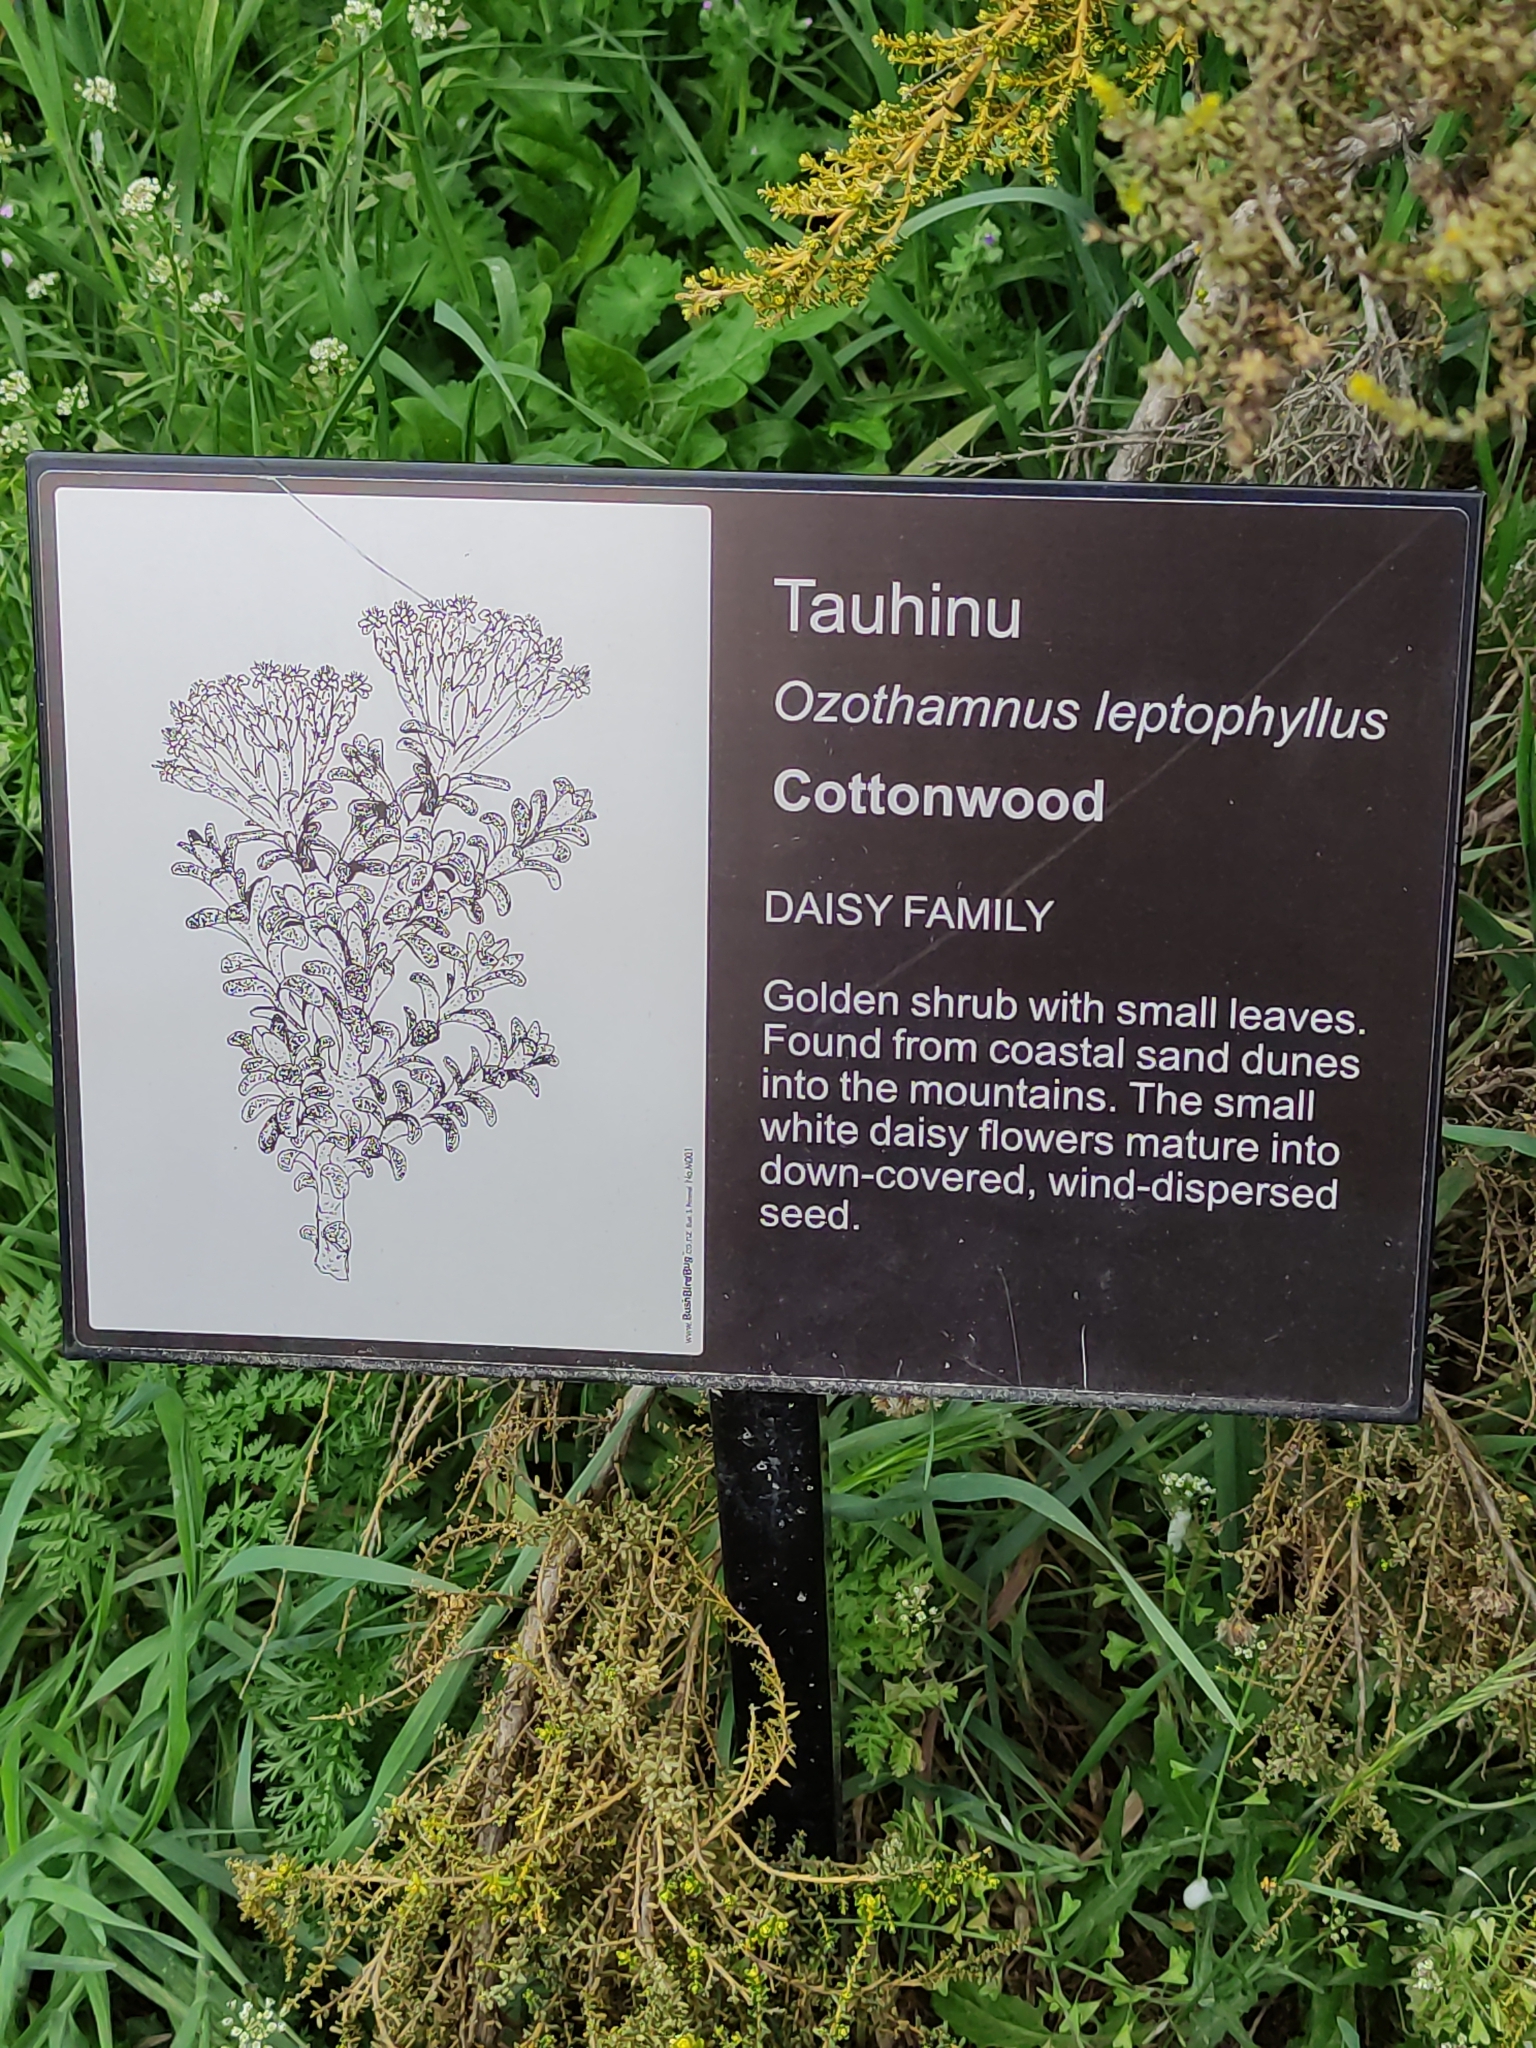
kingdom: Plantae
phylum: Tracheophyta
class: Magnoliopsida
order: Asterales
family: Asteraceae
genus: Ozothamnus
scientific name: Ozothamnus leptophyllus
